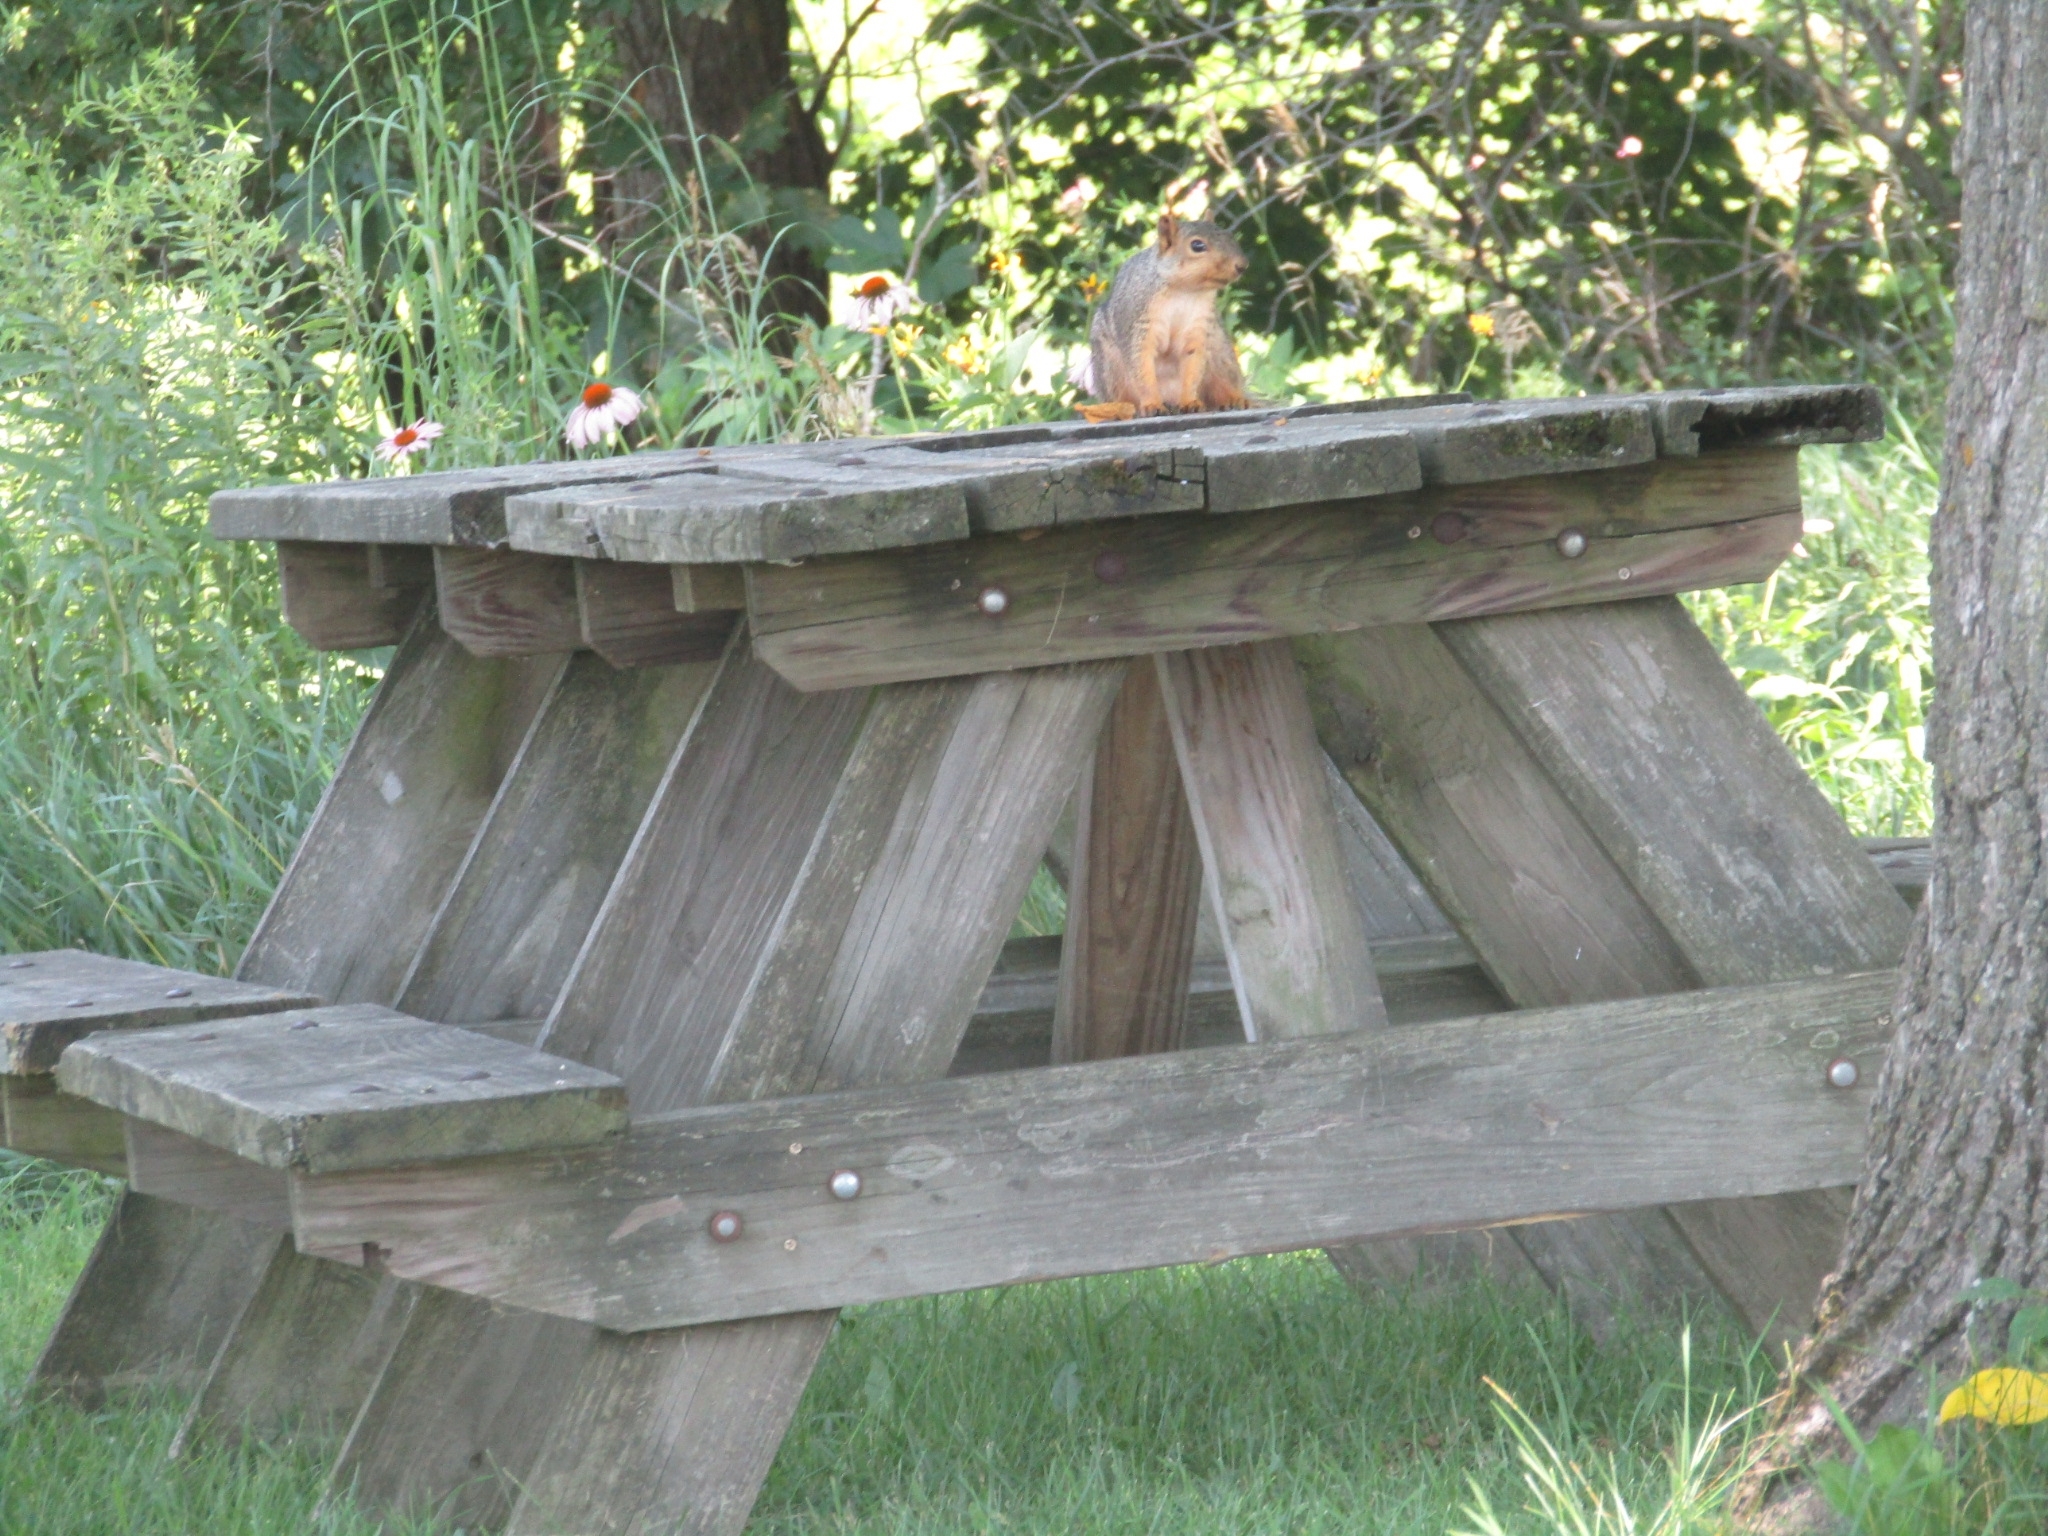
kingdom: Animalia
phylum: Chordata
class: Mammalia
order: Rodentia
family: Sciuridae
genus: Sciurus
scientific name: Sciurus niger
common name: Fox squirrel
